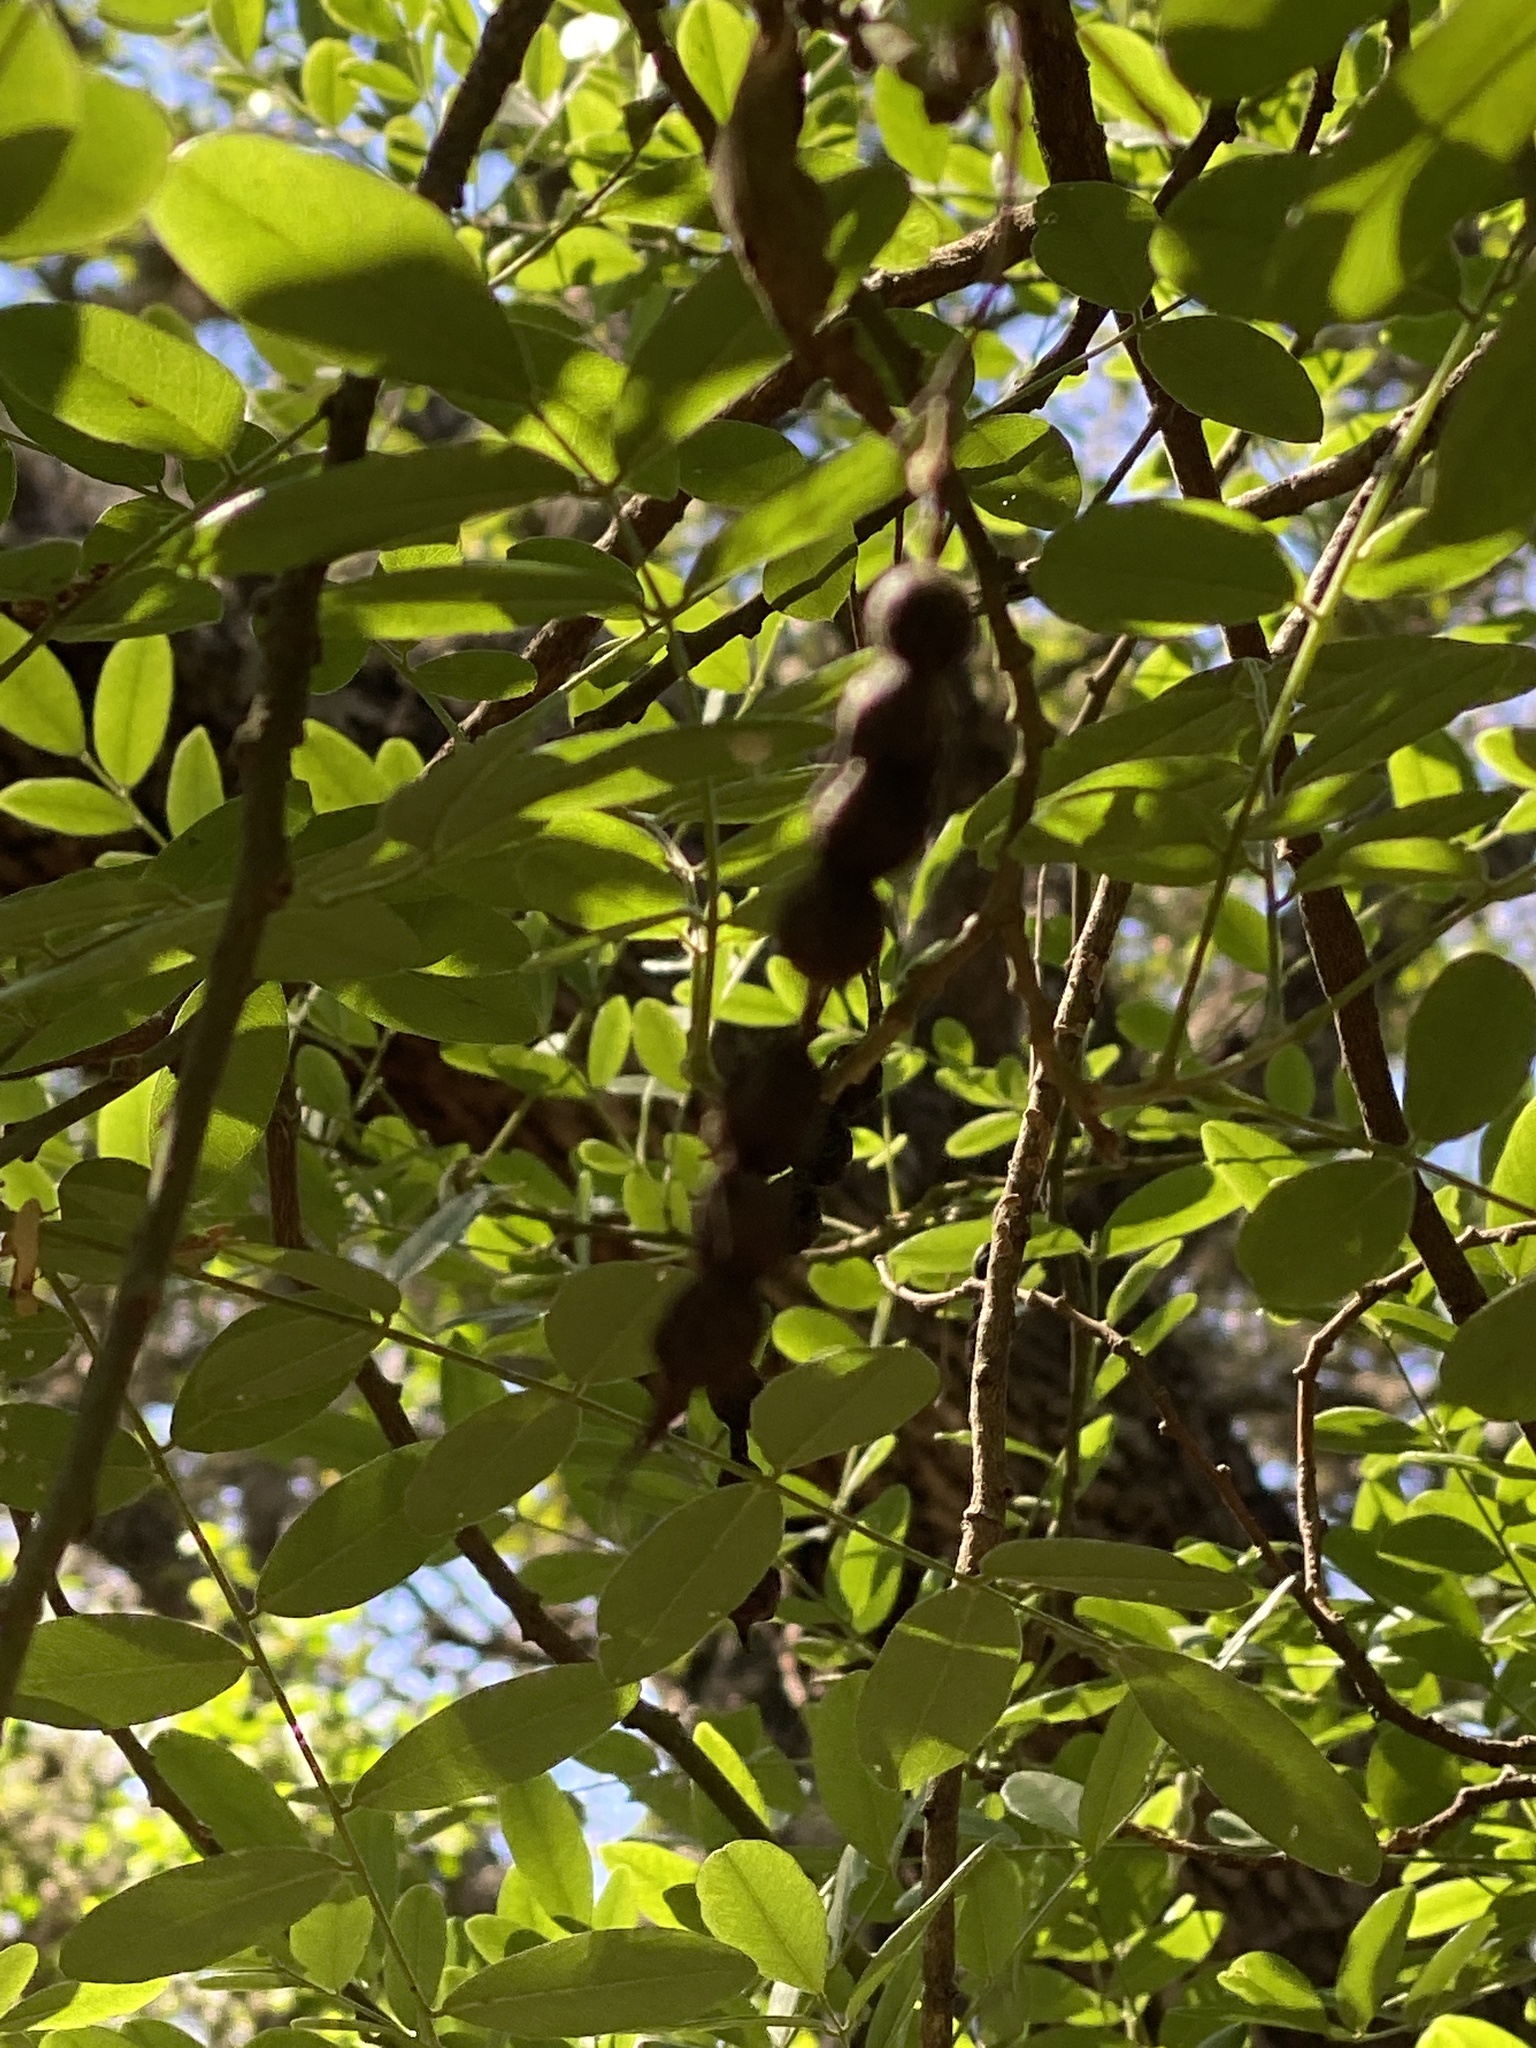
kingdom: Plantae
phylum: Tracheophyta
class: Magnoliopsida
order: Fabales
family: Fabaceae
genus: Styphnolobium
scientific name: Styphnolobium affine
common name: Texas sophora
